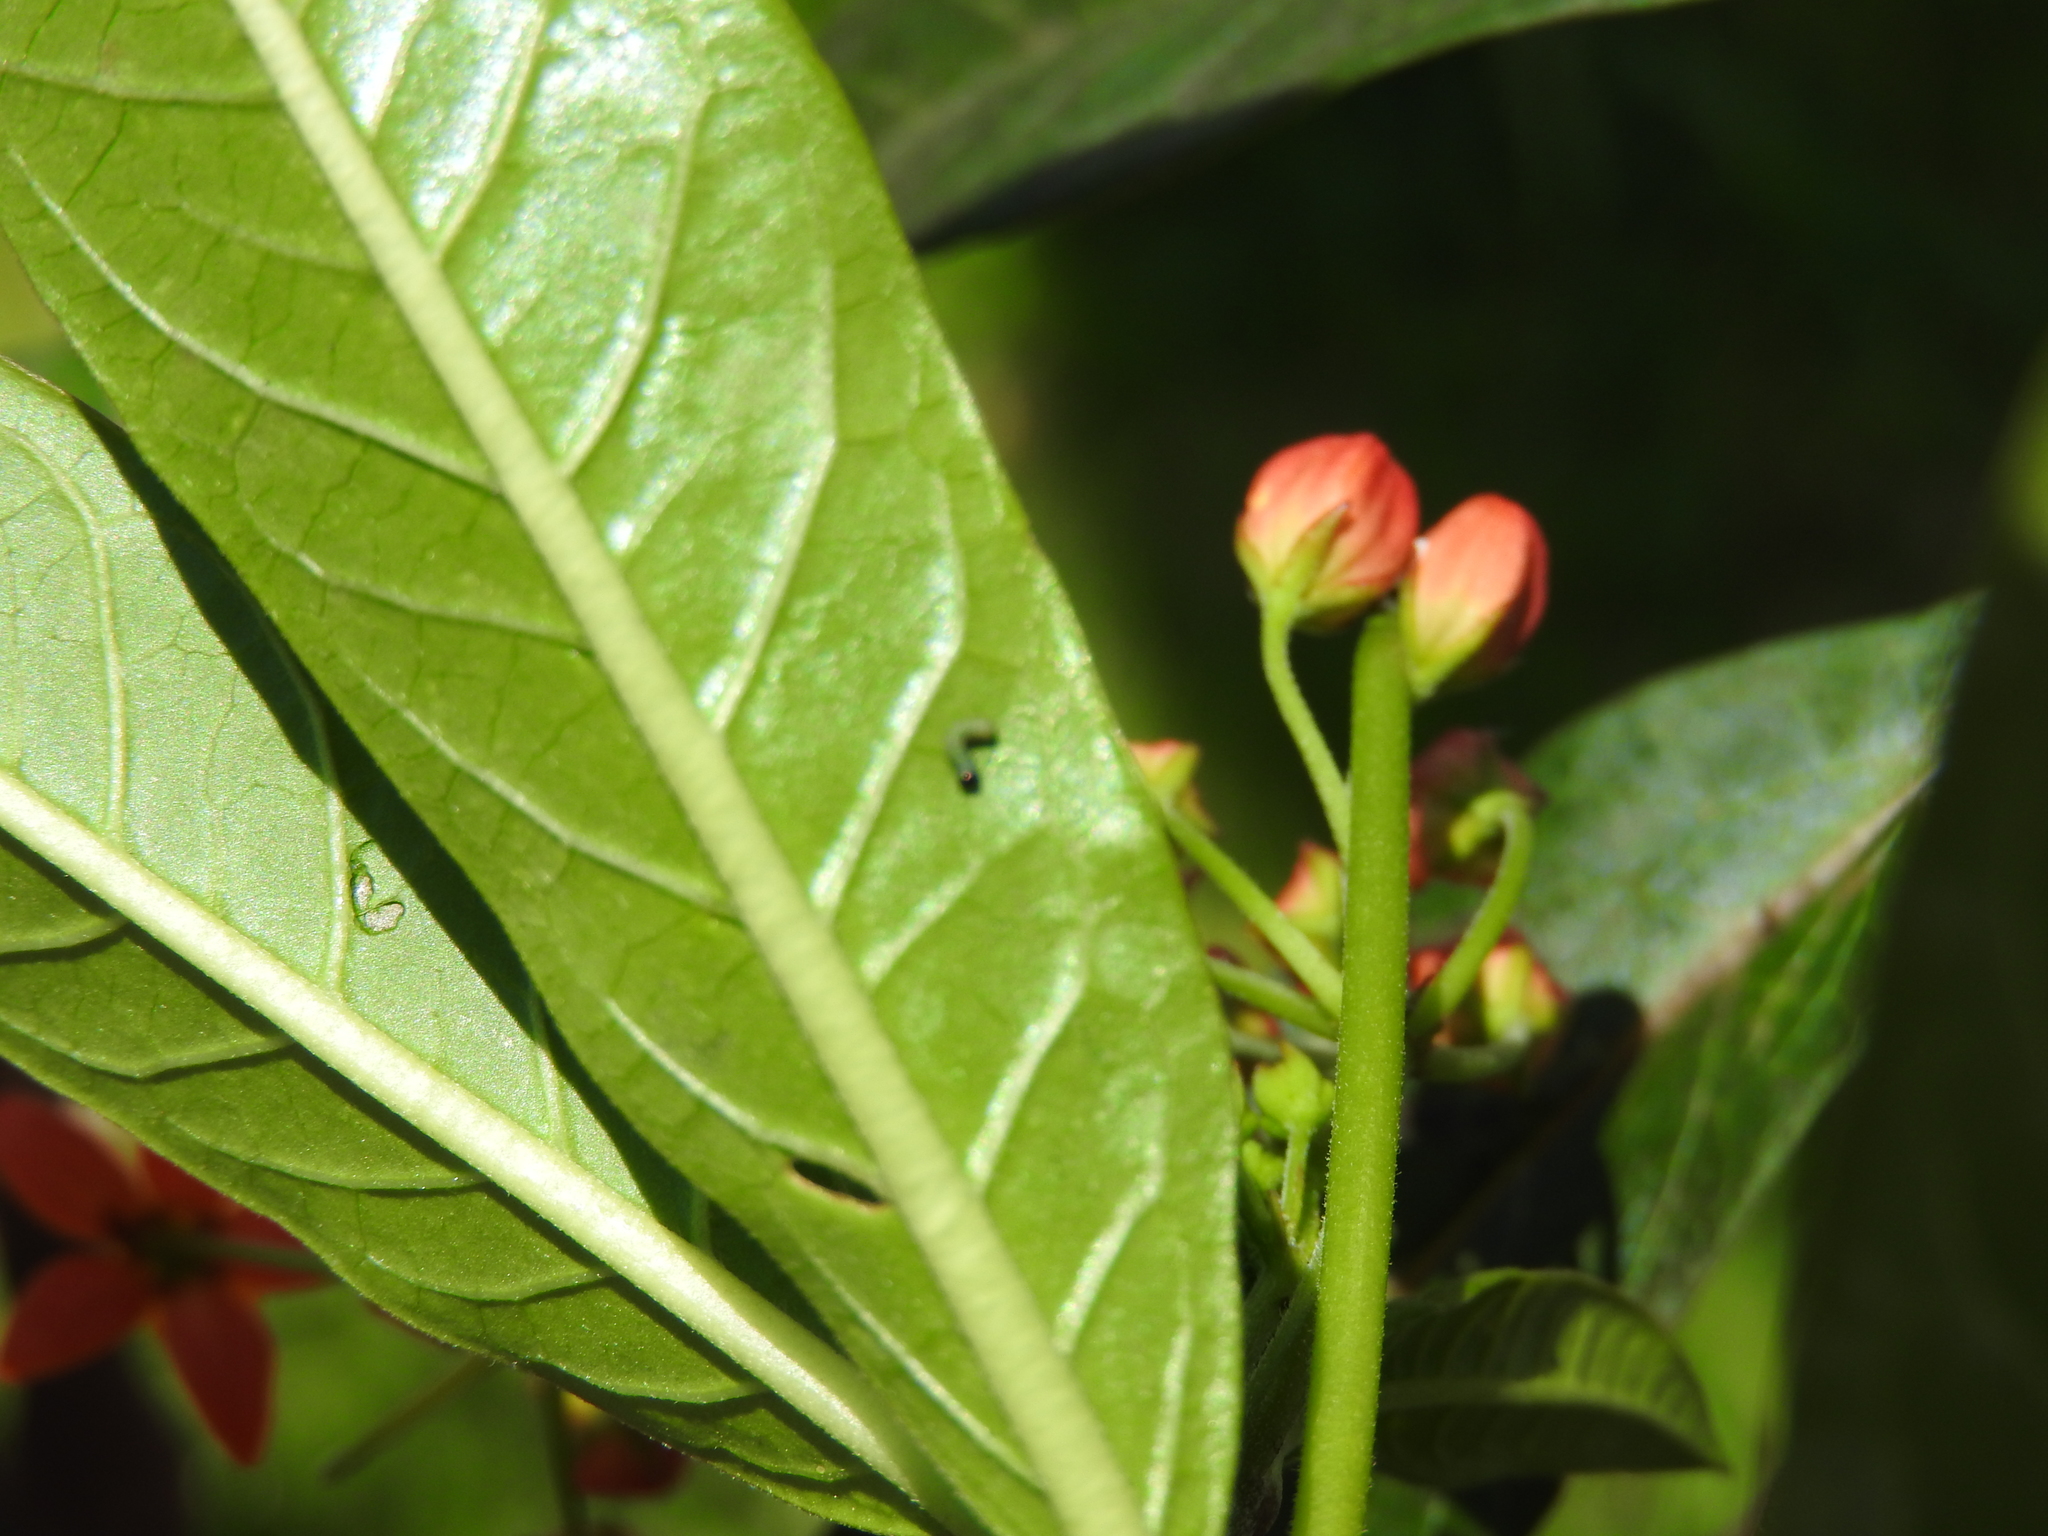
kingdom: Animalia
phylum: Arthropoda
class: Insecta
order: Lepidoptera
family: Nymphalidae
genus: Danaus
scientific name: Danaus plexippus
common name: Monarch
